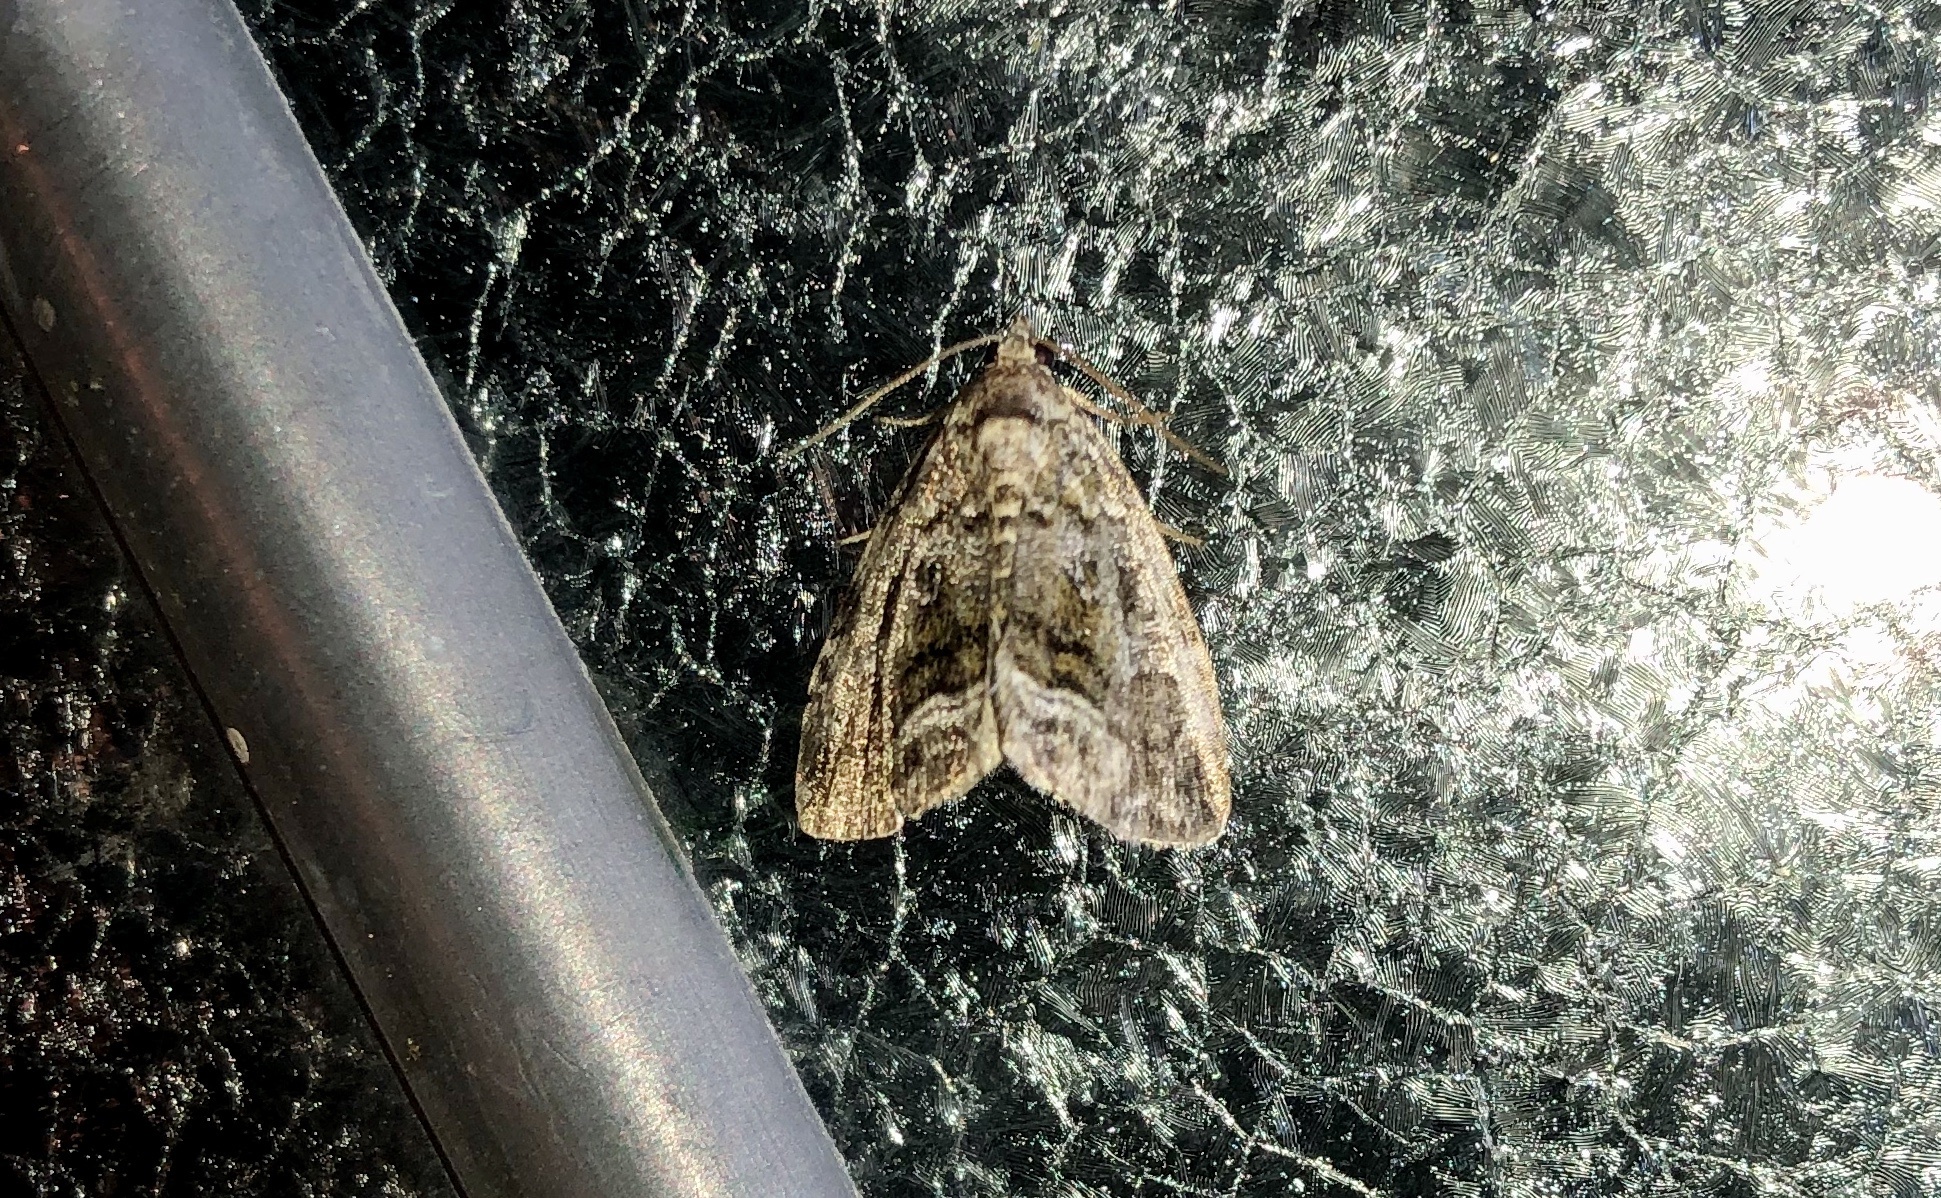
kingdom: Animalia
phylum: Arthropoda
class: Insecta
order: Lepidoptera
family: Noctuidae
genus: Protodeltote
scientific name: Protodeltote muscosula
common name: Large mossy glyph
